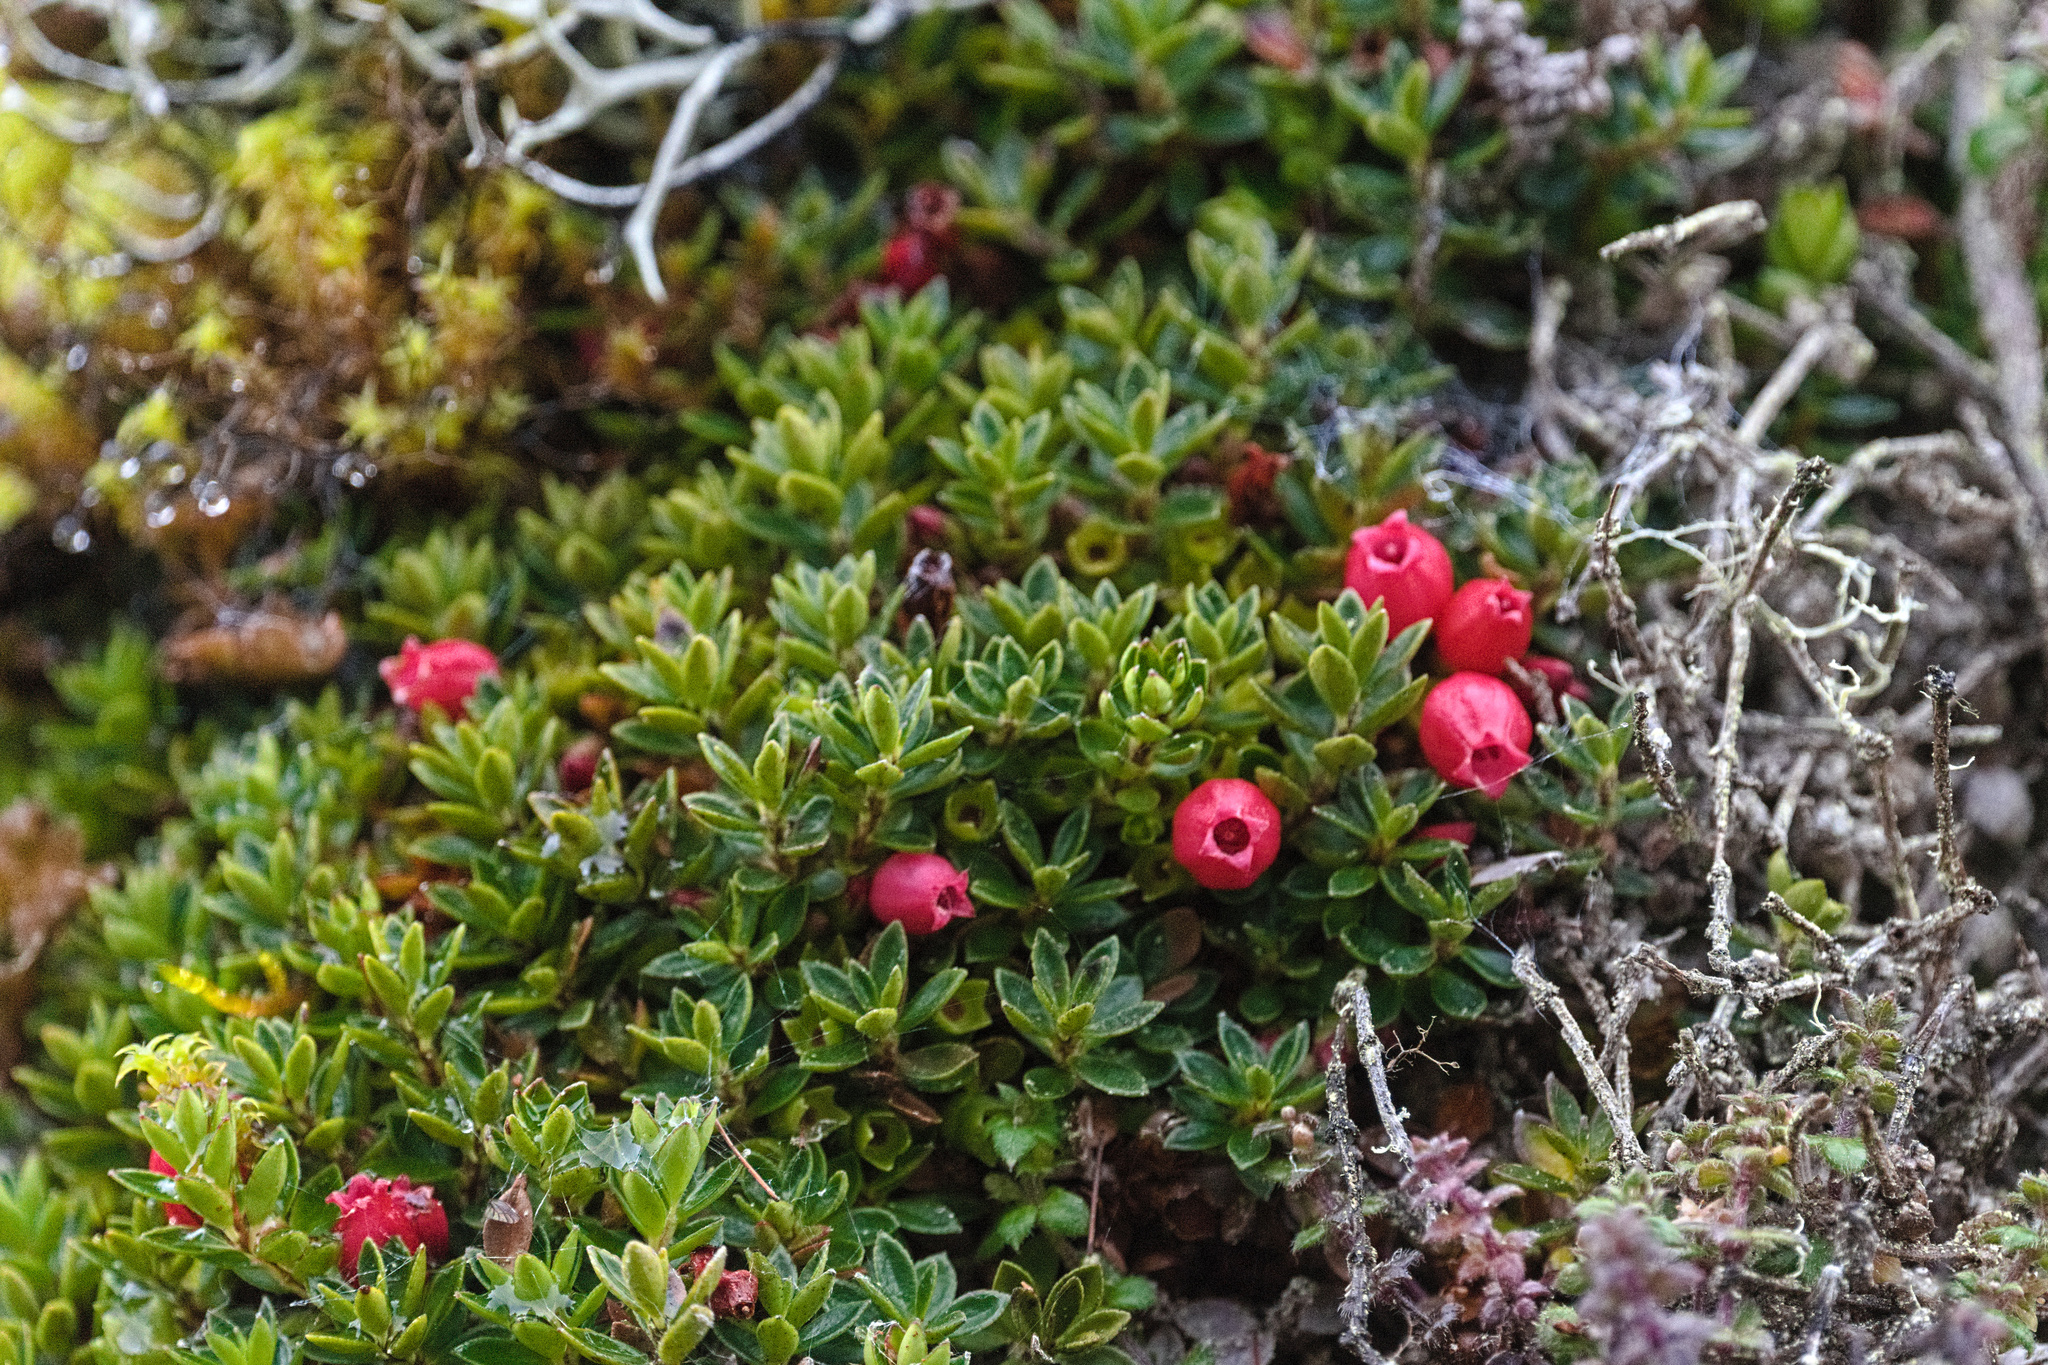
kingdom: Plantae
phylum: Tracheophyta
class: Magnoliopsida
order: Ericales
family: Ericaceae
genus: Disterigma
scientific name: Disterigma empetrifolium
